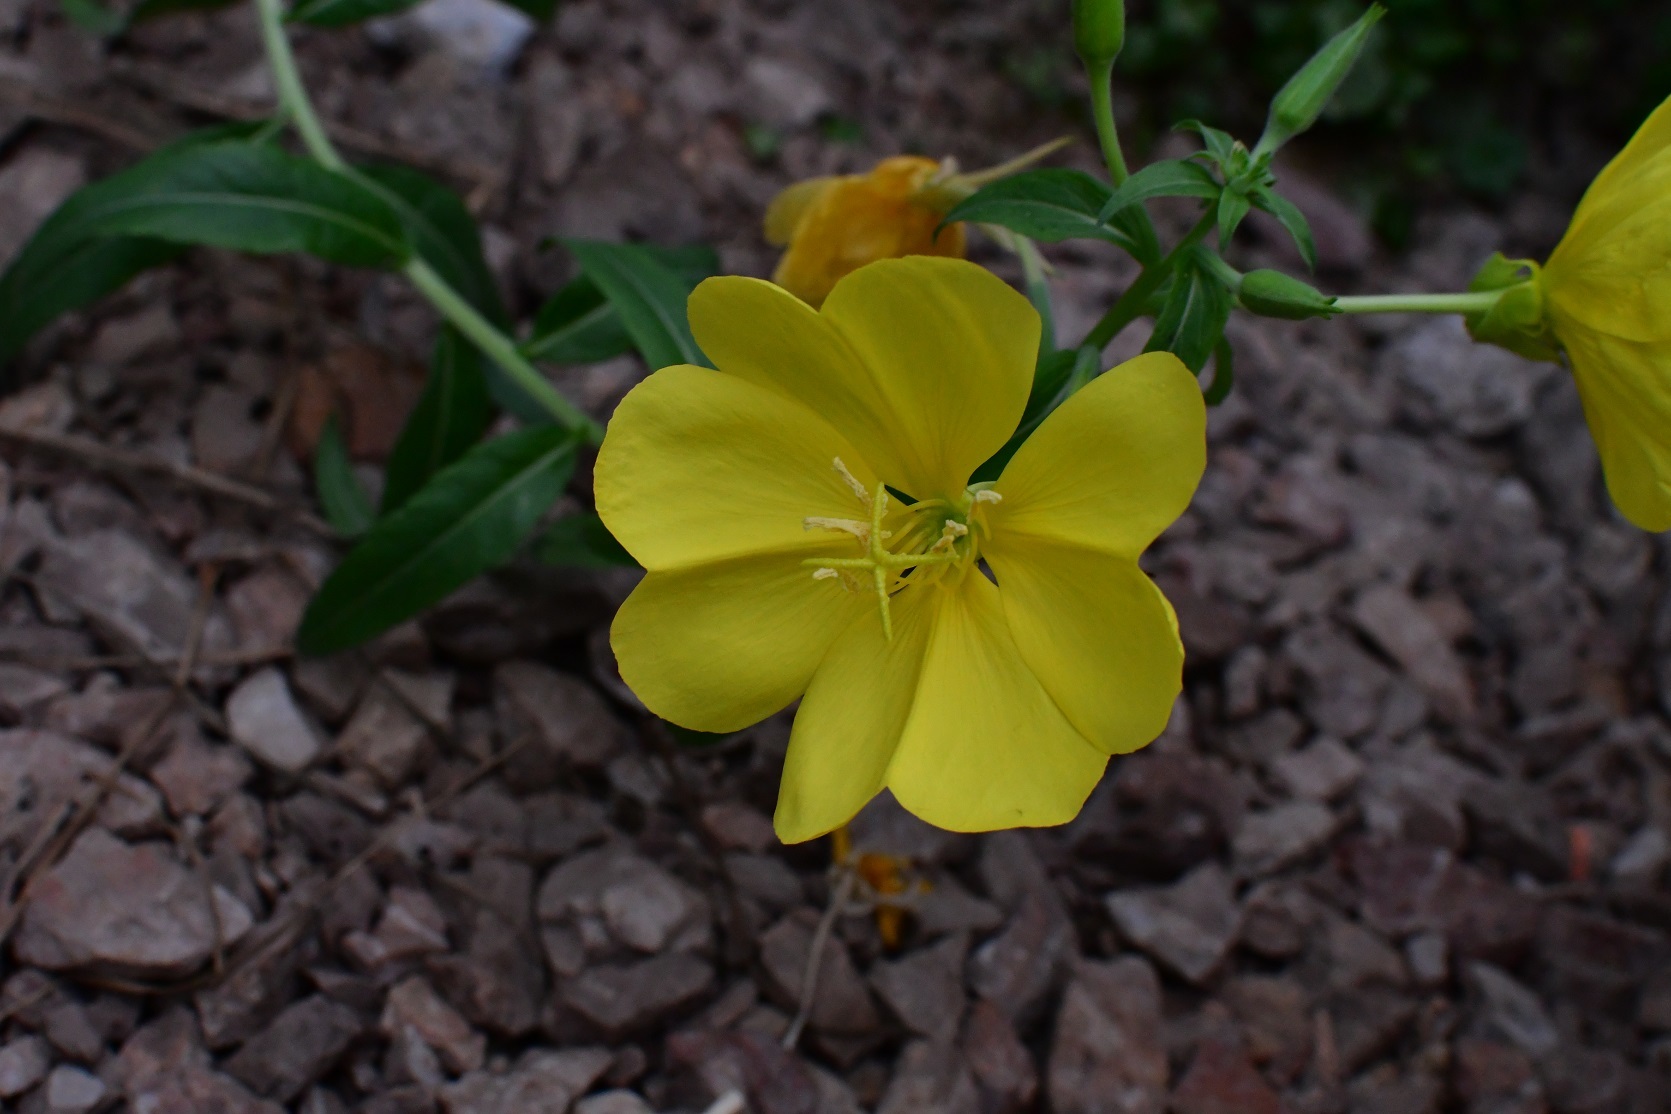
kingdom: Plantae
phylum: Tracheophyta
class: Magnoliopsida
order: Myrtales
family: Onagraceae
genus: Oenothera
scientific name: Oenothera macrocarpa
